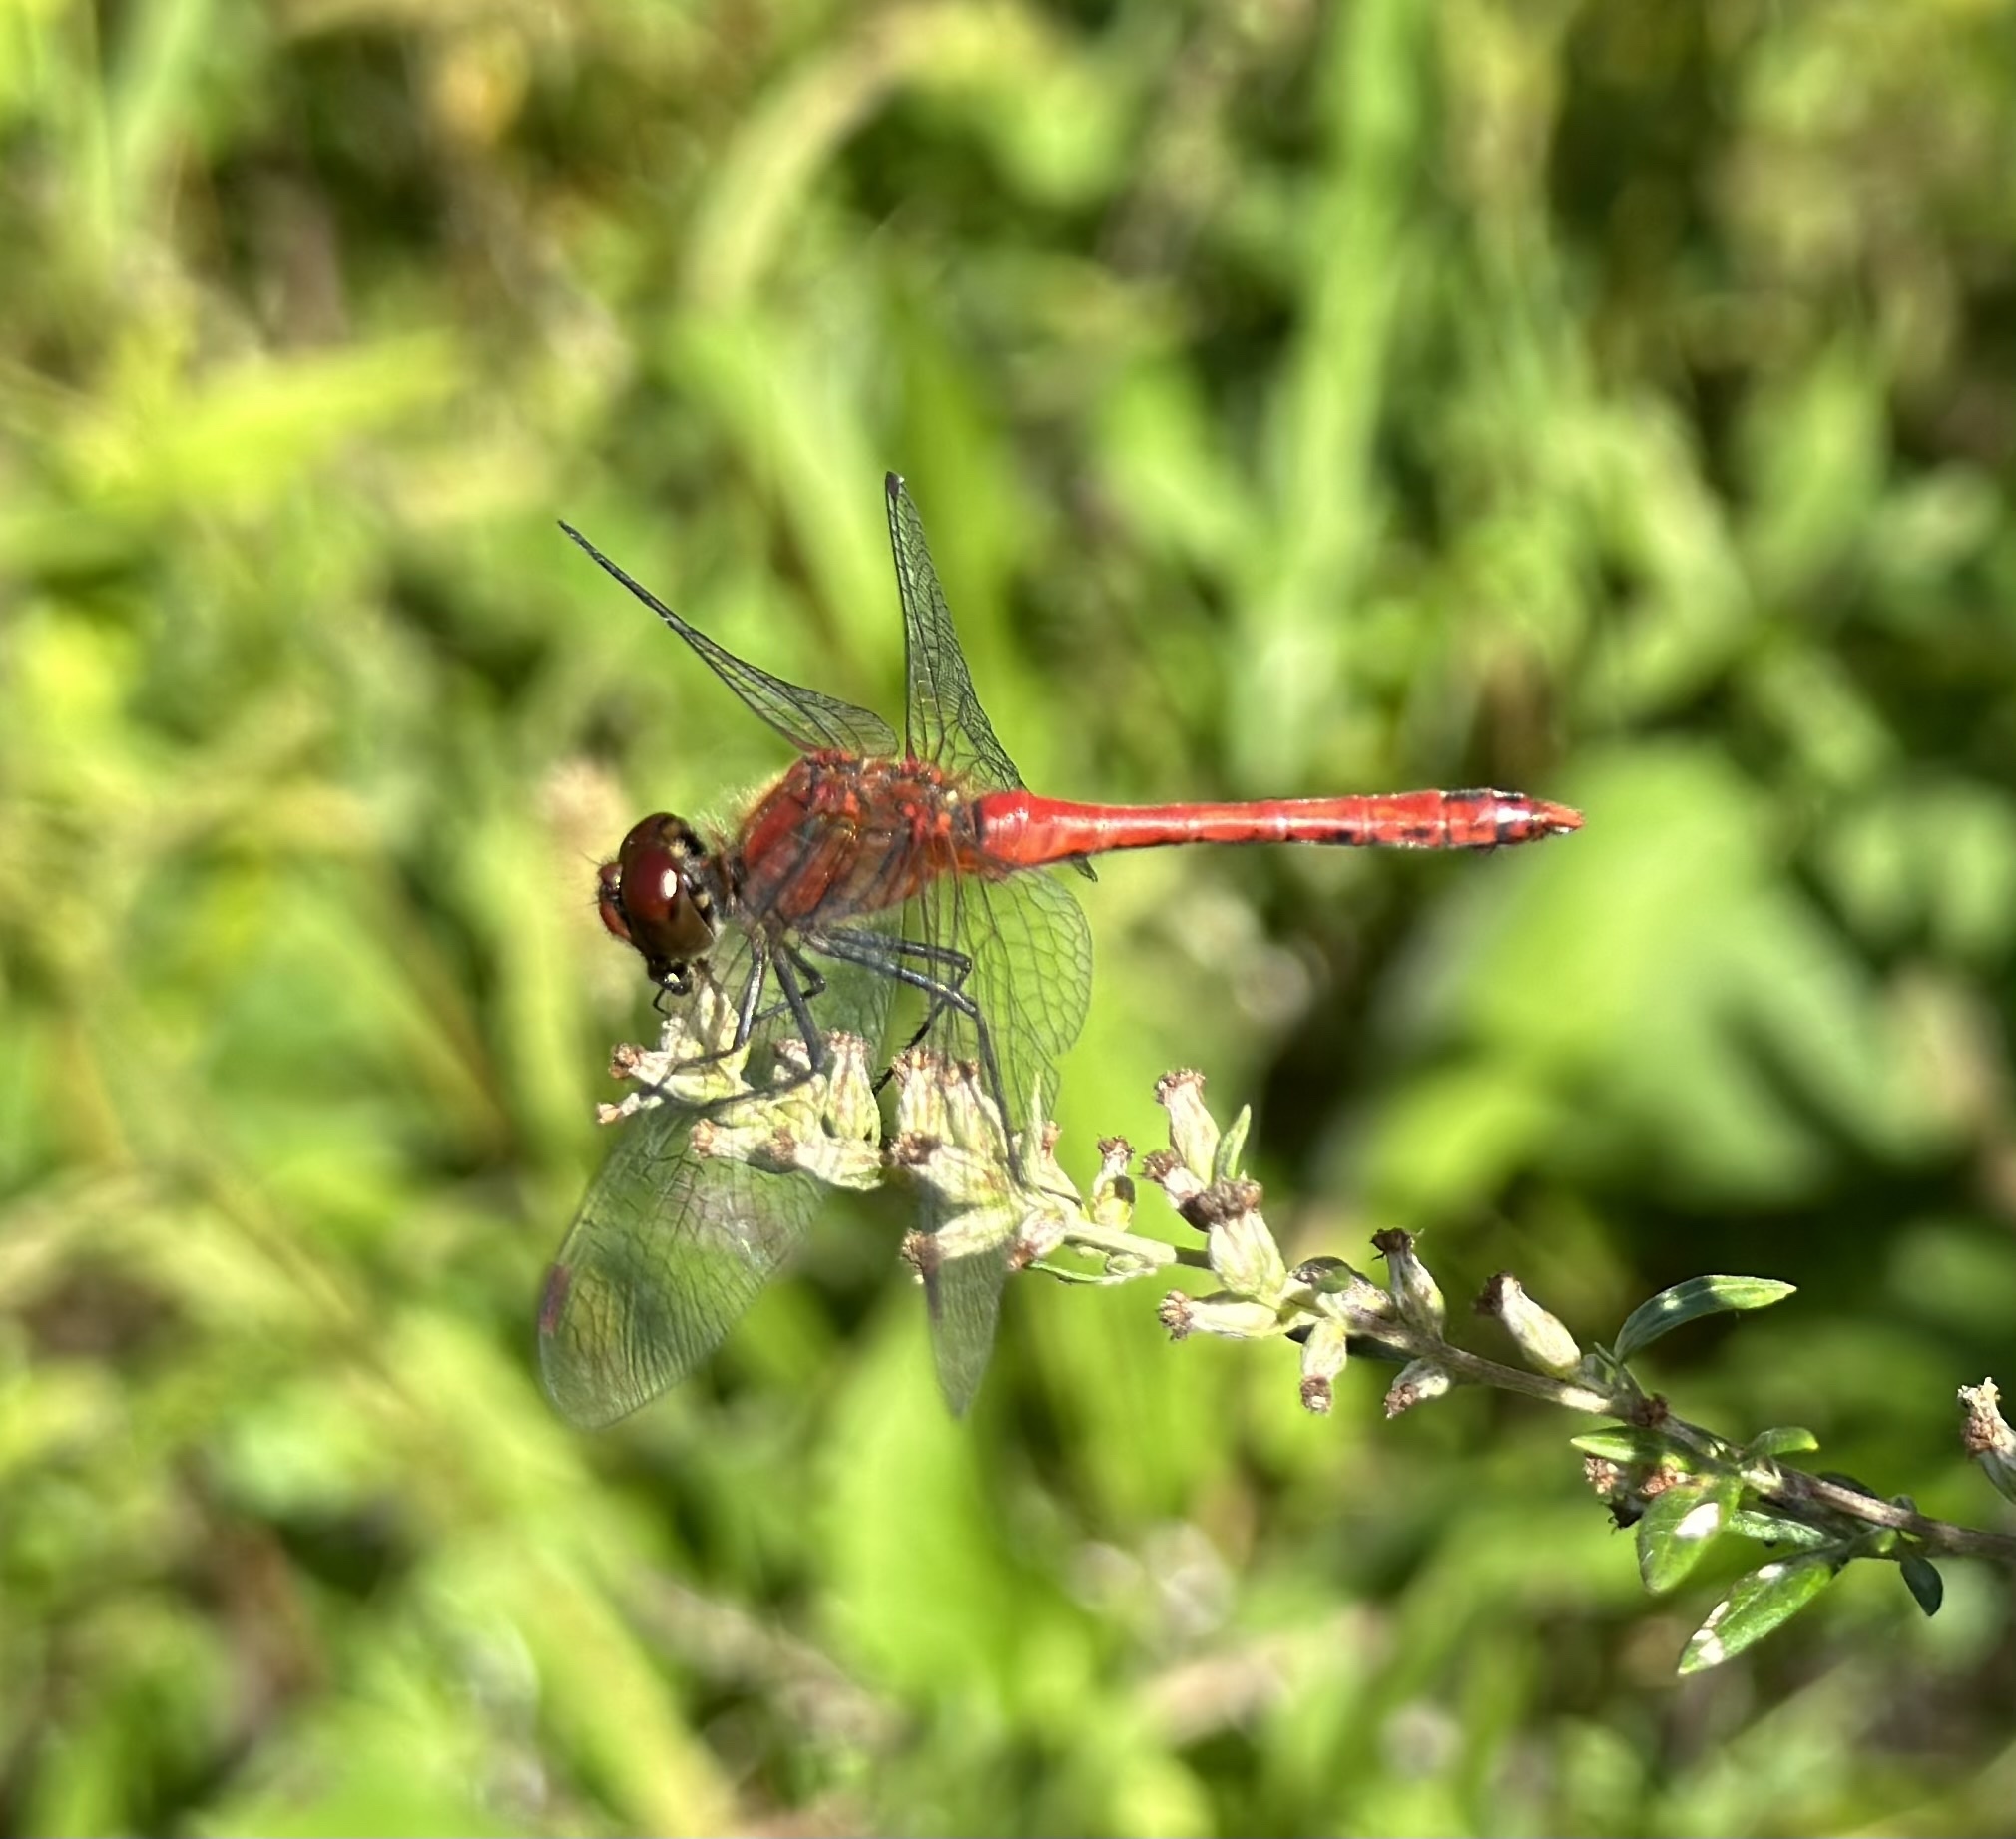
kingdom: Animalia
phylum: Arthropoda
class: Insecta
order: Odonata
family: Libellulidae
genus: Sympetrum
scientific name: Sympetrum sanguineum
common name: Ruddy darter
